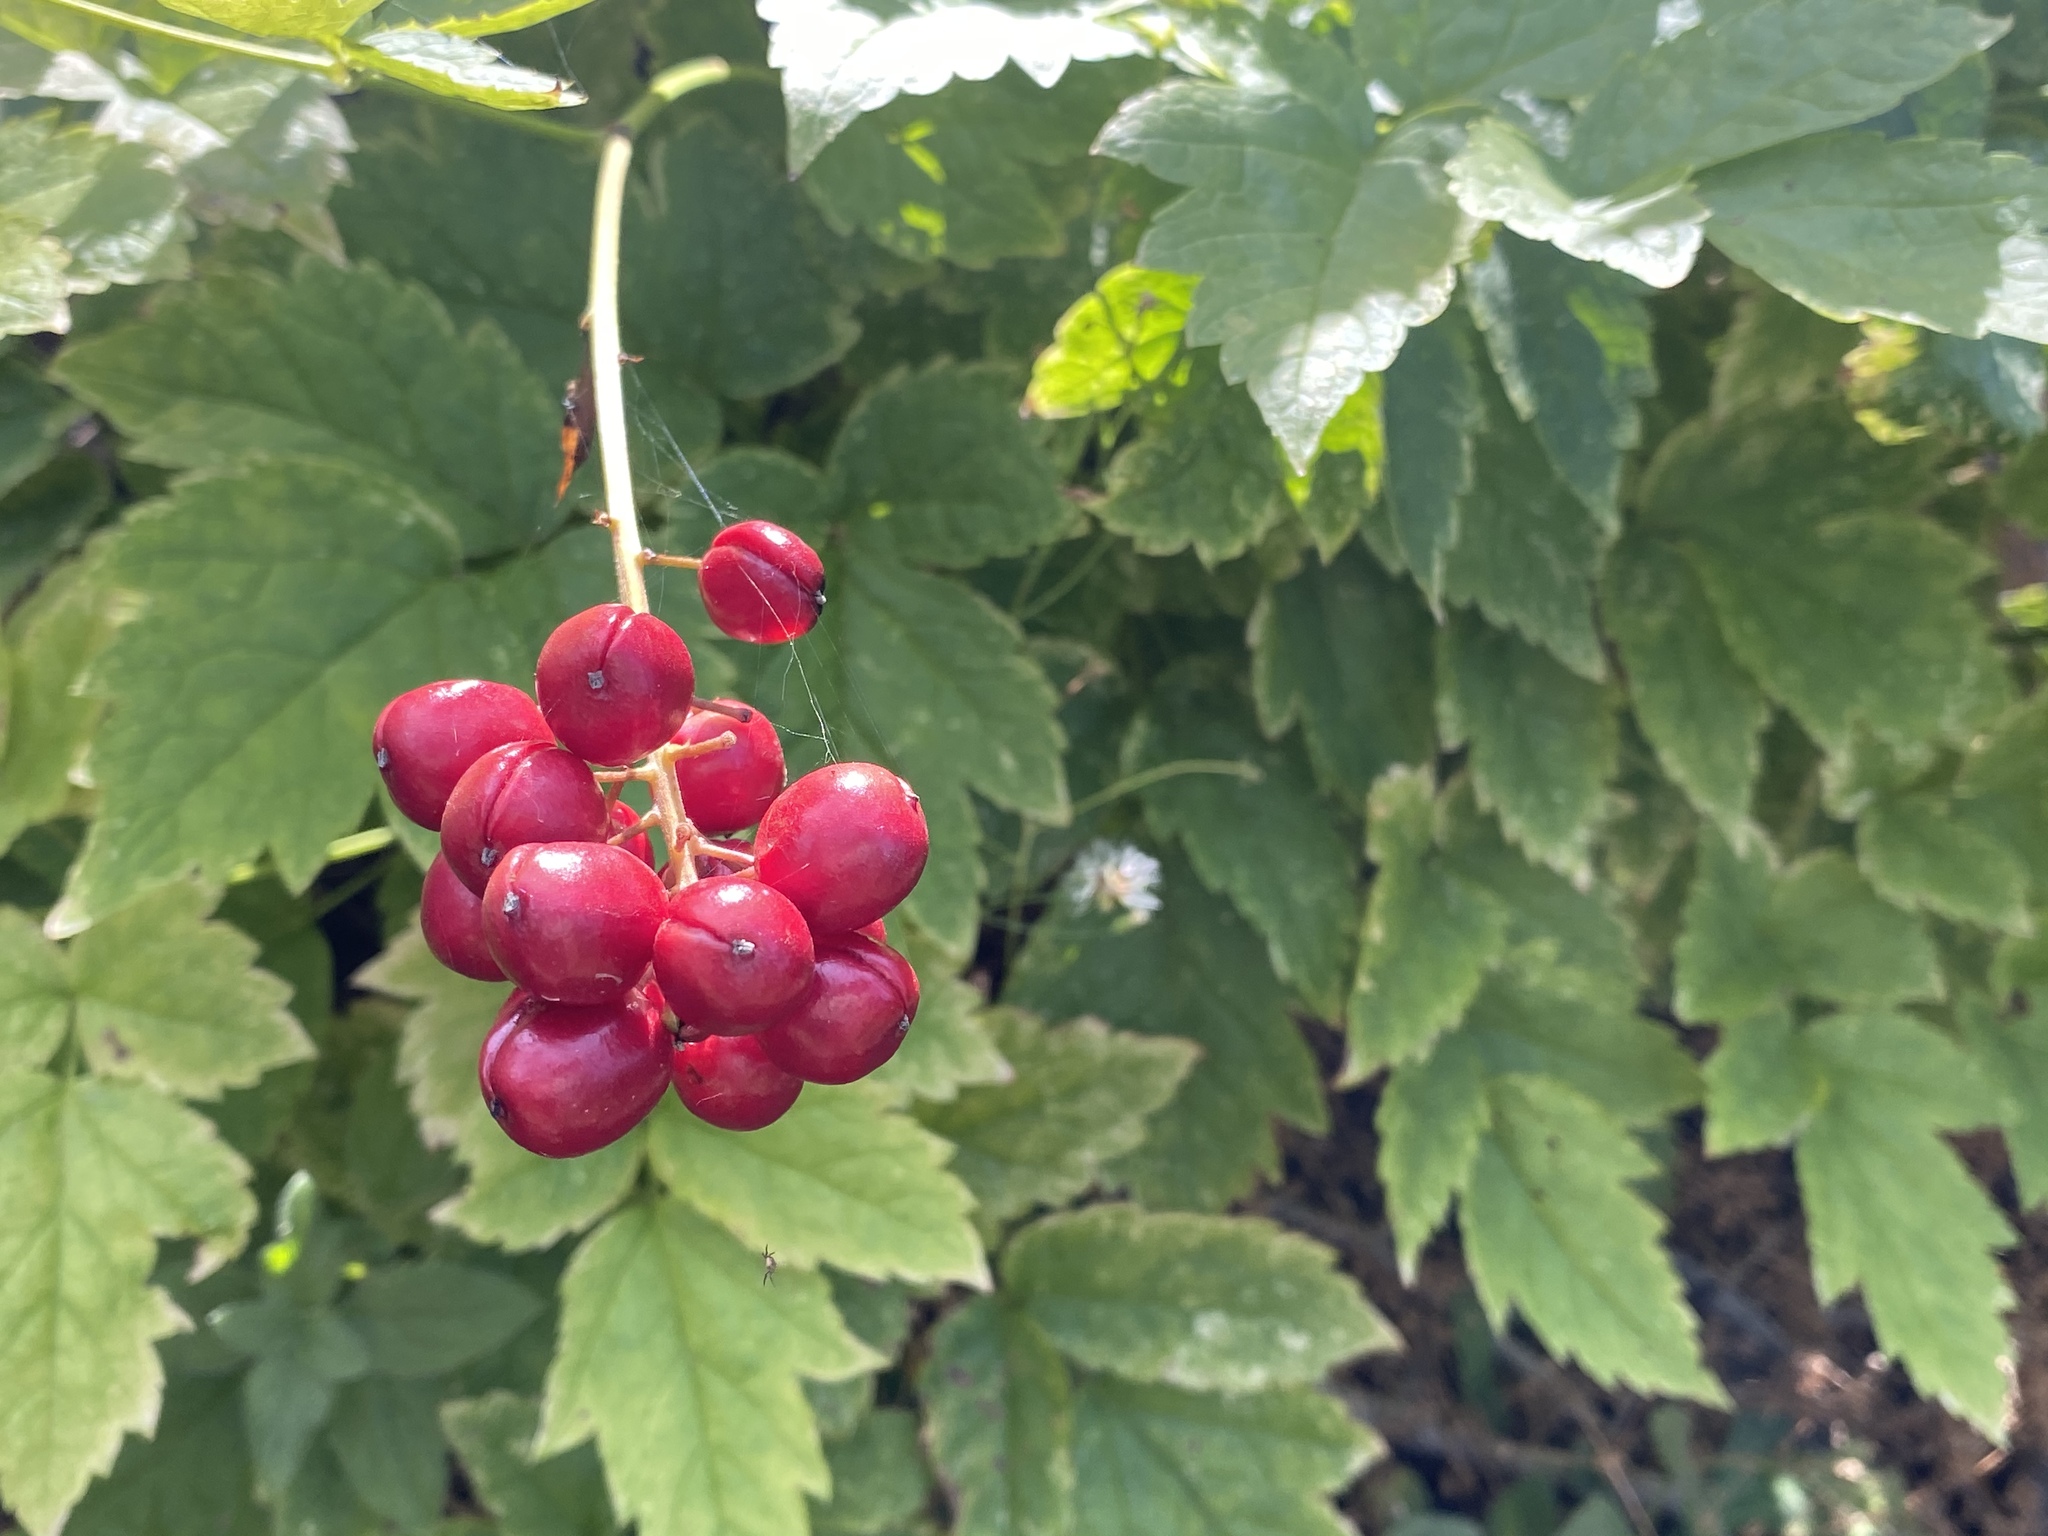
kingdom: Plantae
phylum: Tracheophyta
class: Magnoliopsida
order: Ranunculales
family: Ranunculaceae
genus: Actaea
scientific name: Actaea rubra
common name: Red baneberry
